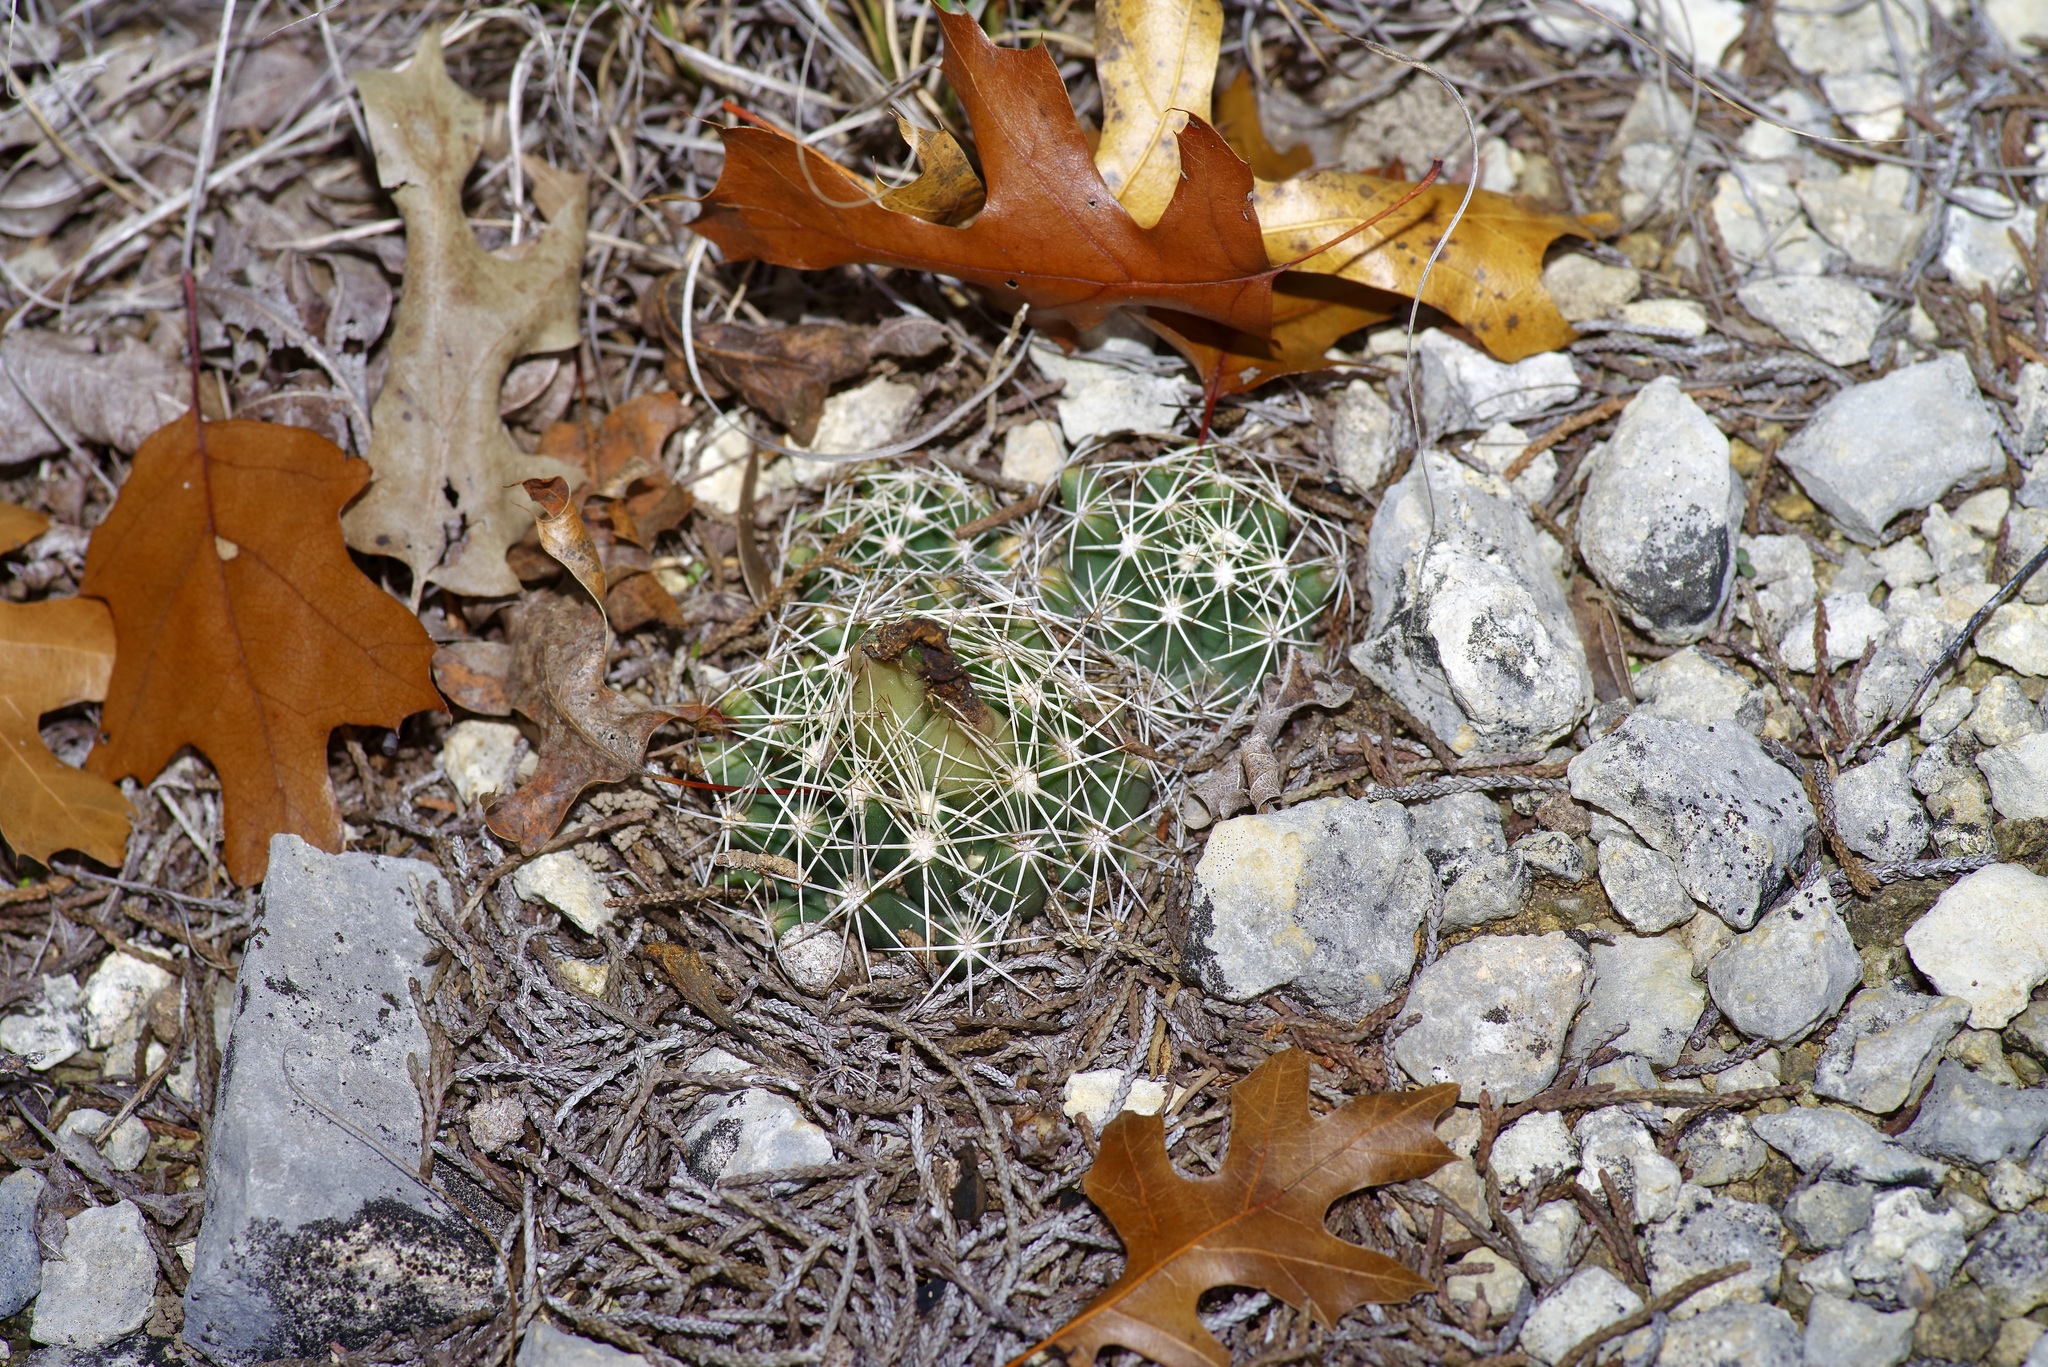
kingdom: Plantae
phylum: Tracheophyta
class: Magnoliopsida
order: Caryophyllales
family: Cactaceae
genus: Coryphantha
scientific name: Coryphantha sulcata
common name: Finger cactus
